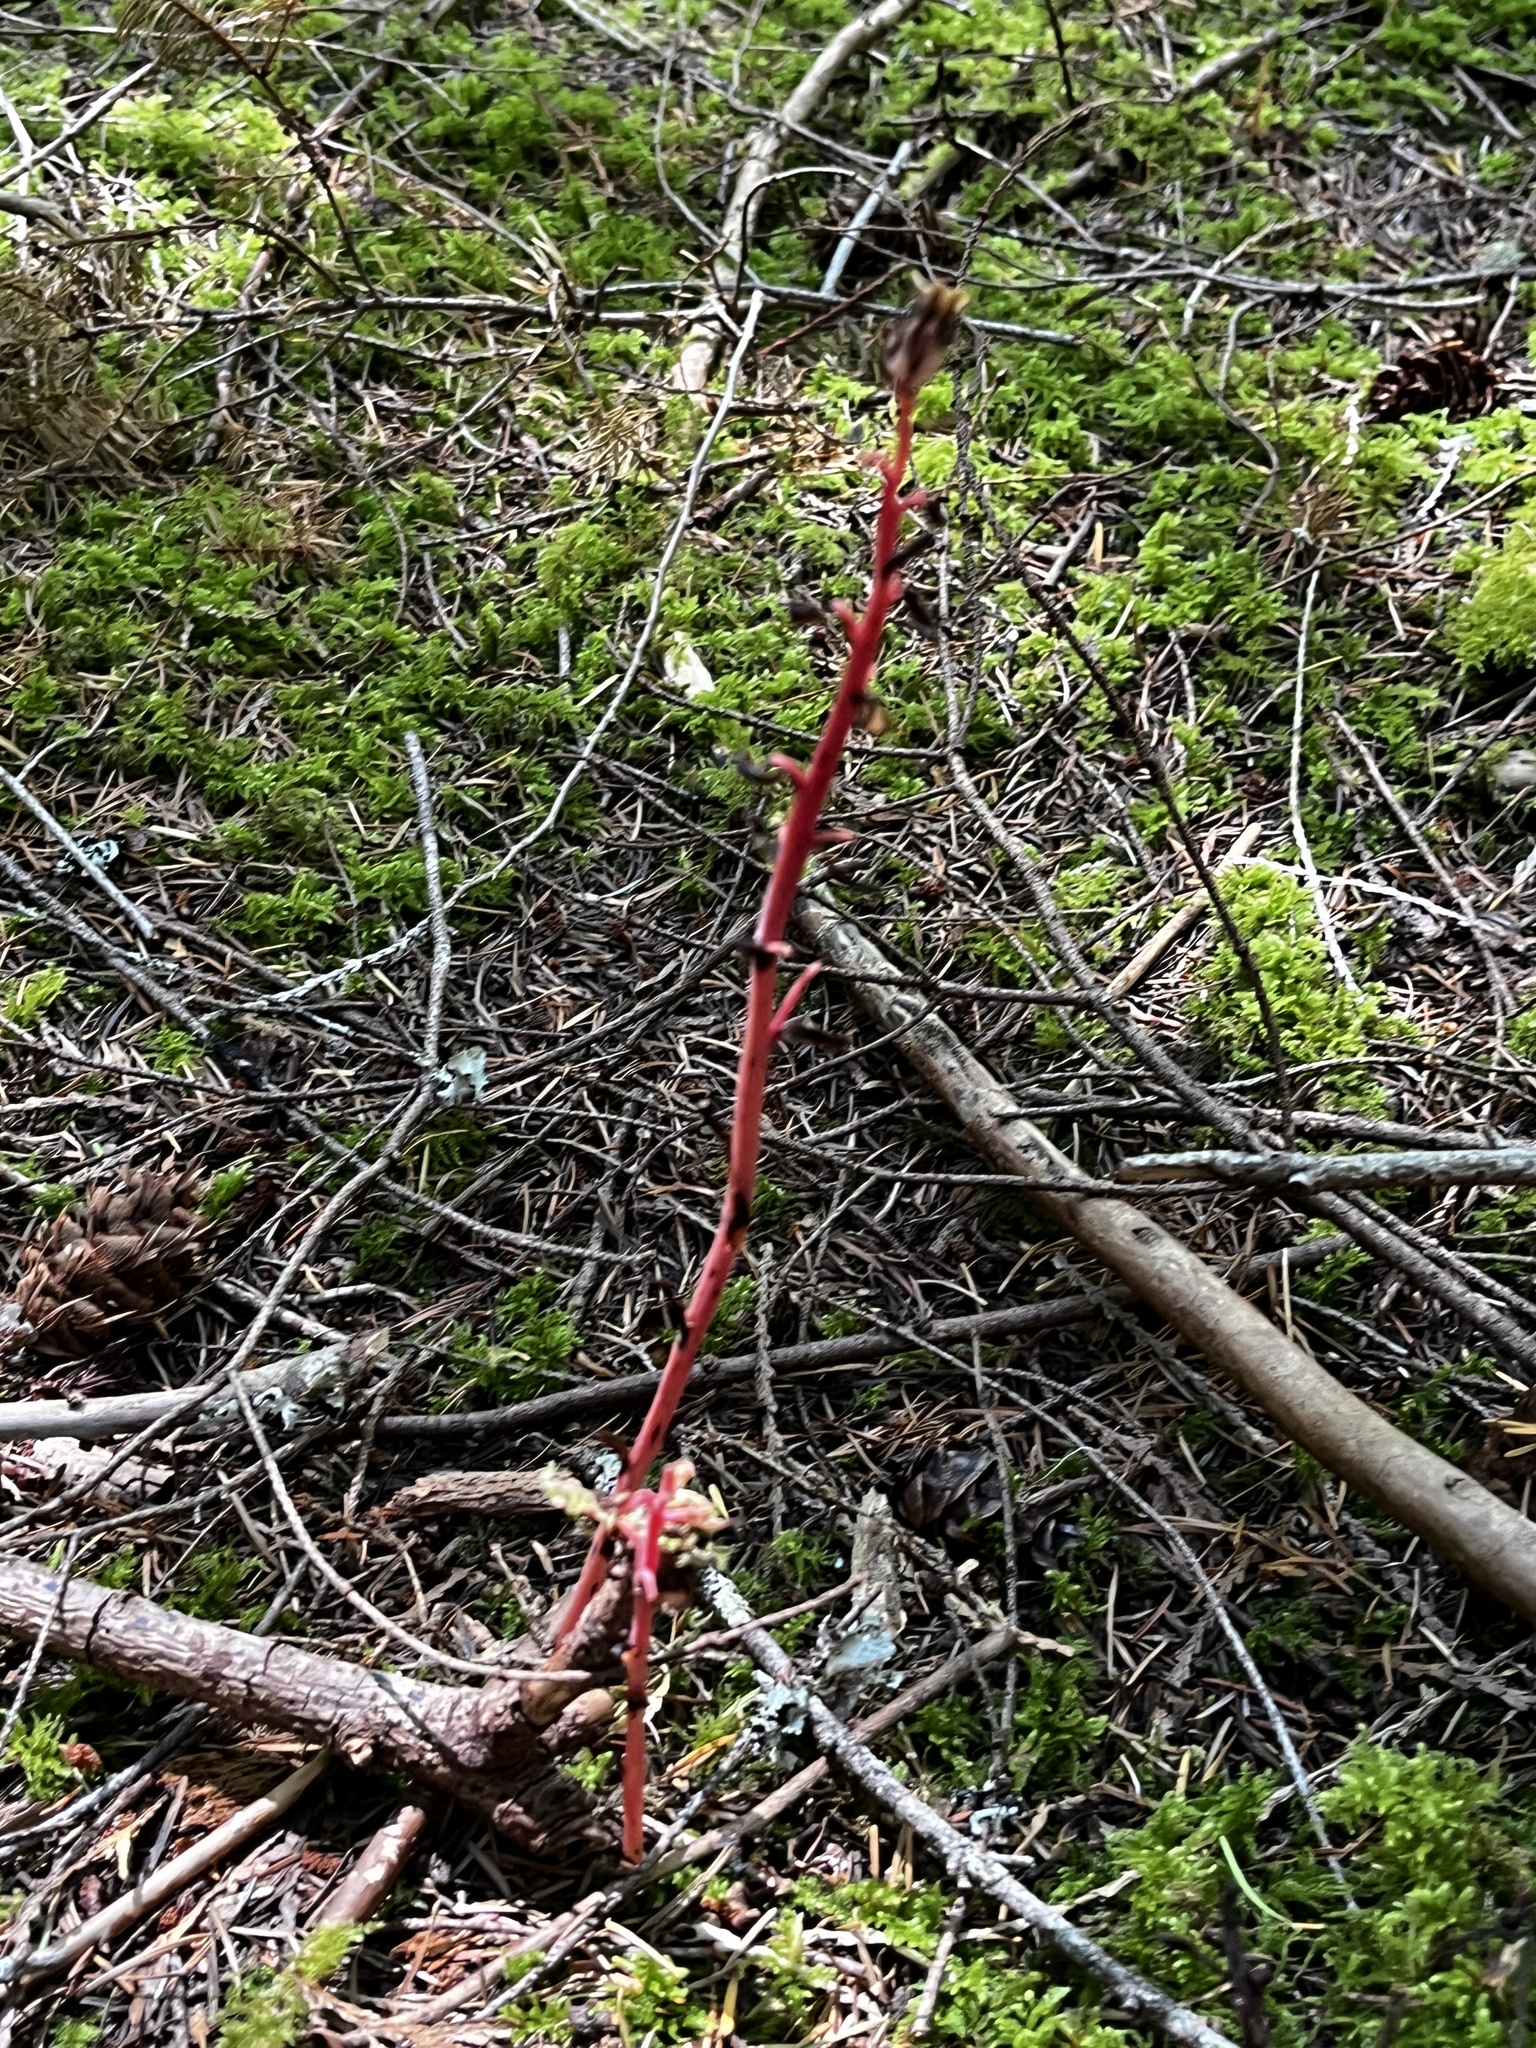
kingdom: Plantae
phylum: Tracheophyta
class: Magnoliopsida
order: Ericales
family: Ericaceae
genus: Hypopitys
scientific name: Hypopitys monotropa
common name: Yellow bird's-nest
